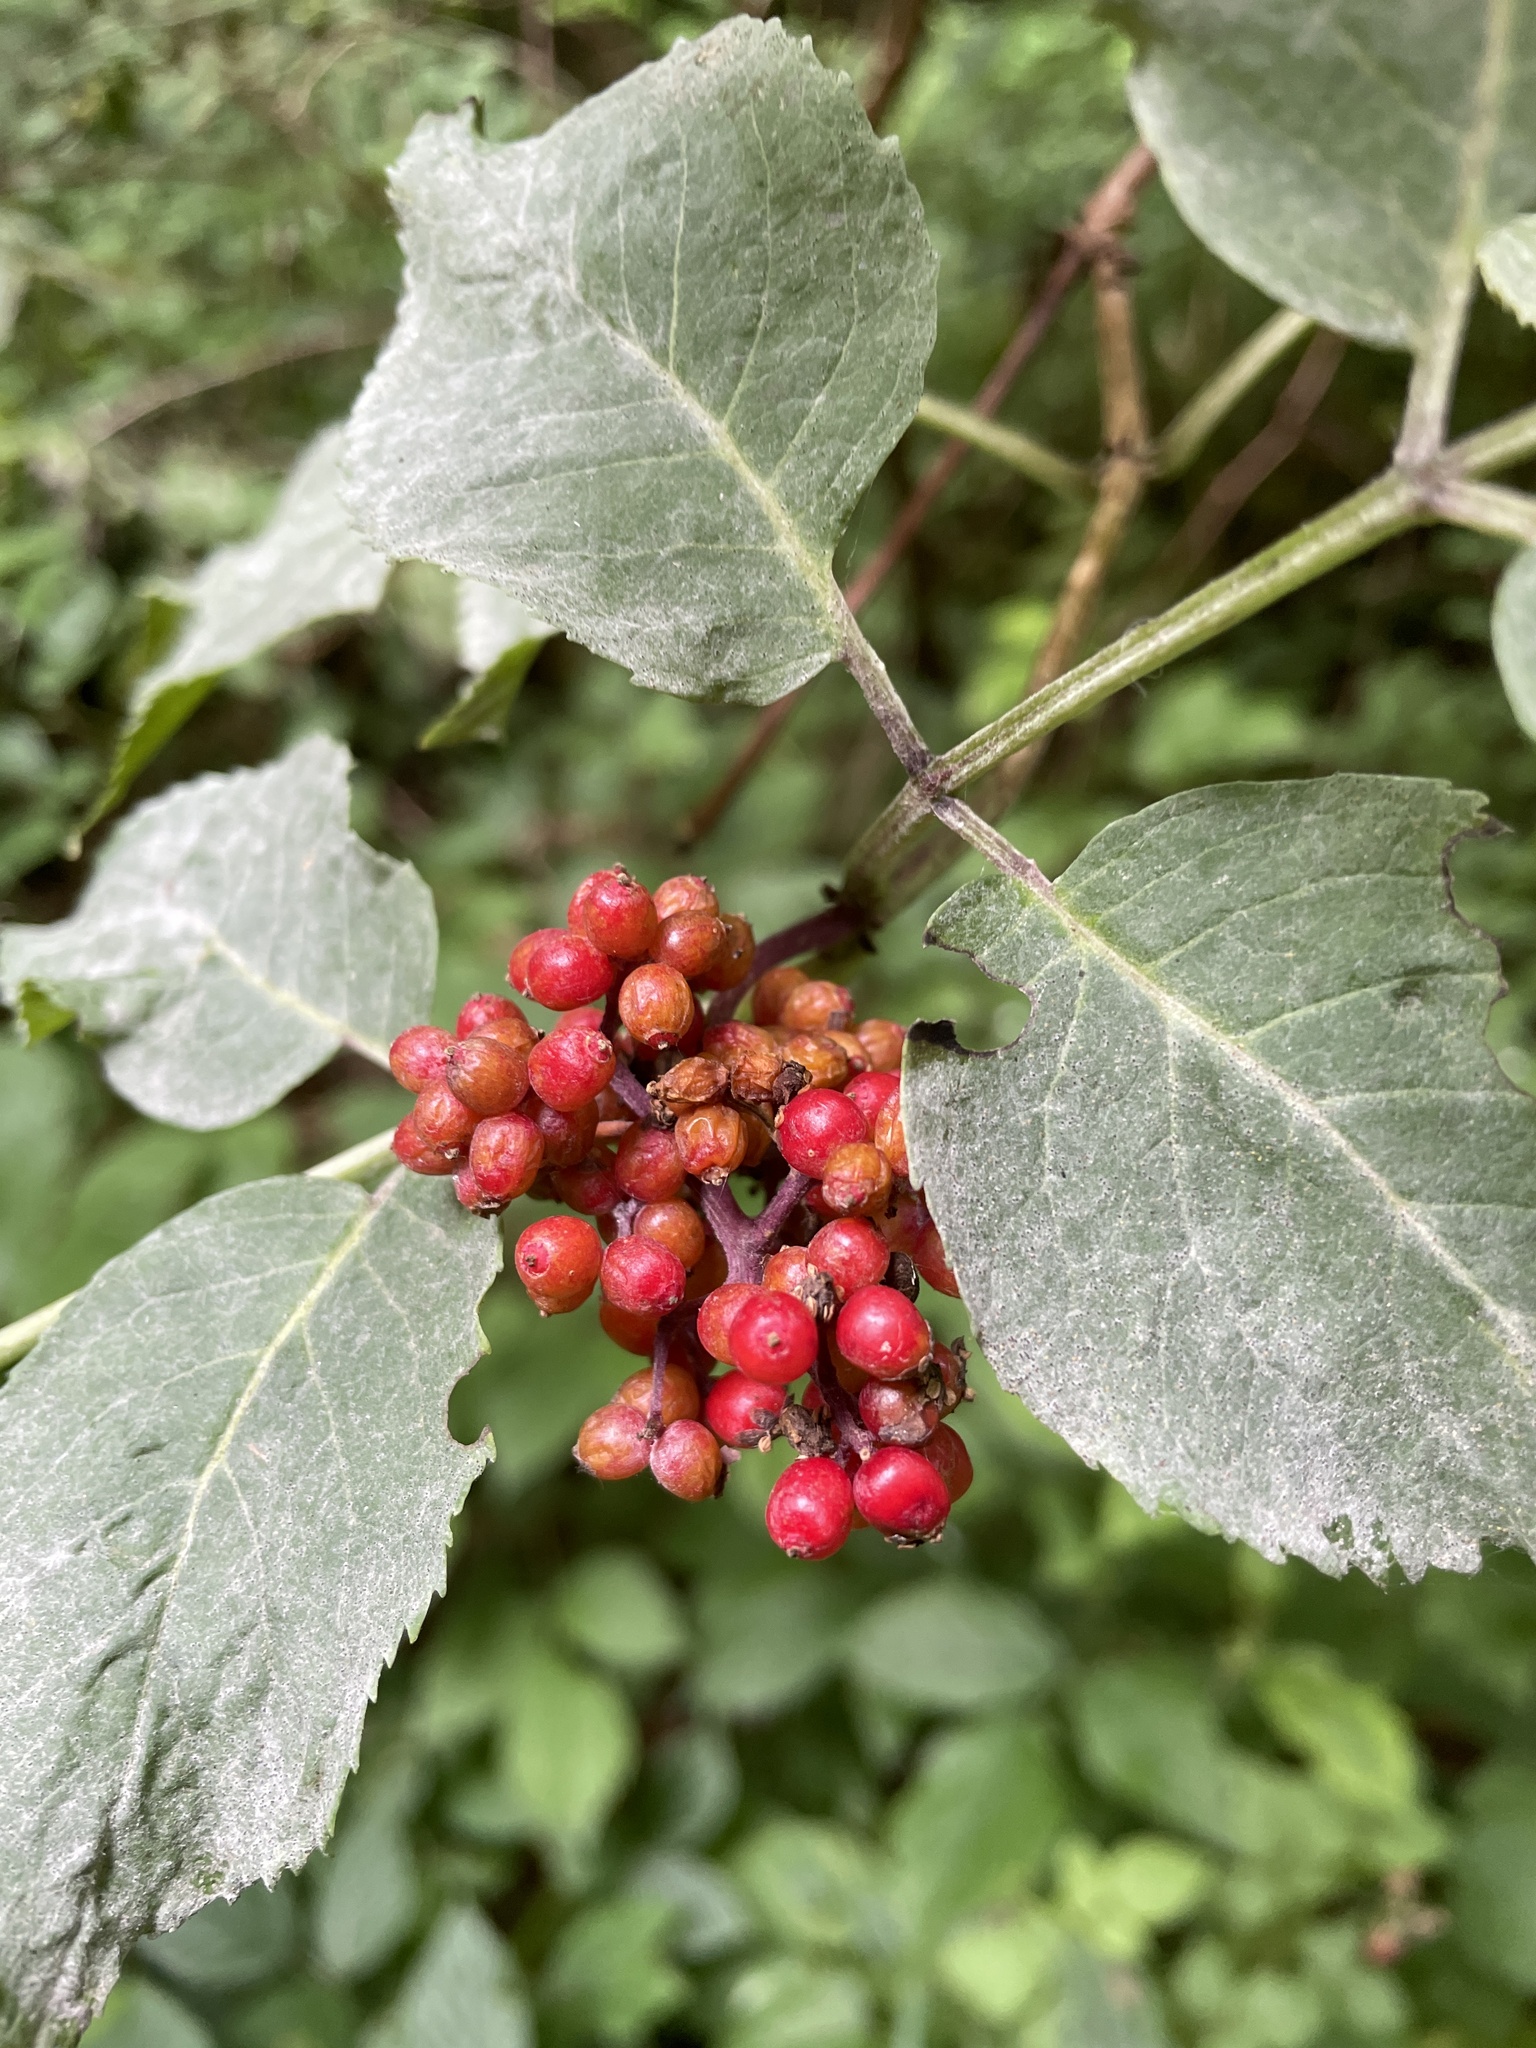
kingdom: Plantae
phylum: Tracheophyta
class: Magnoliopsida
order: Dipsacales
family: Viburnaceae
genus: Sambucus
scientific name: Sambucus racemosa
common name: Red-berried elder
